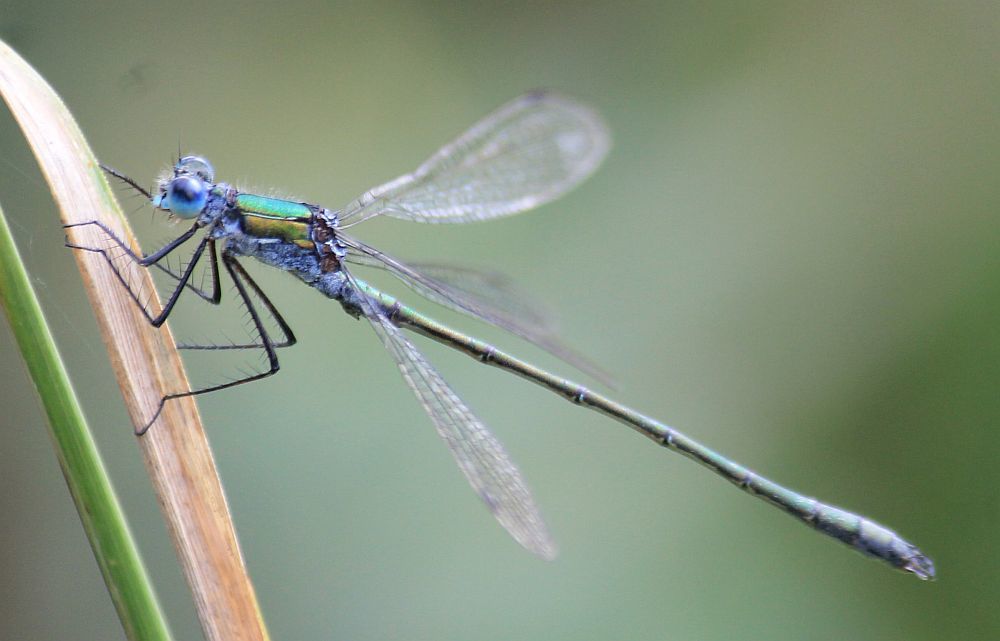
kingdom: Animalia
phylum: Arthropoda
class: Insecta
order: Odonata
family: Lestidae
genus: Lestes
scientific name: Lestes sponsa
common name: Common spreadwing
